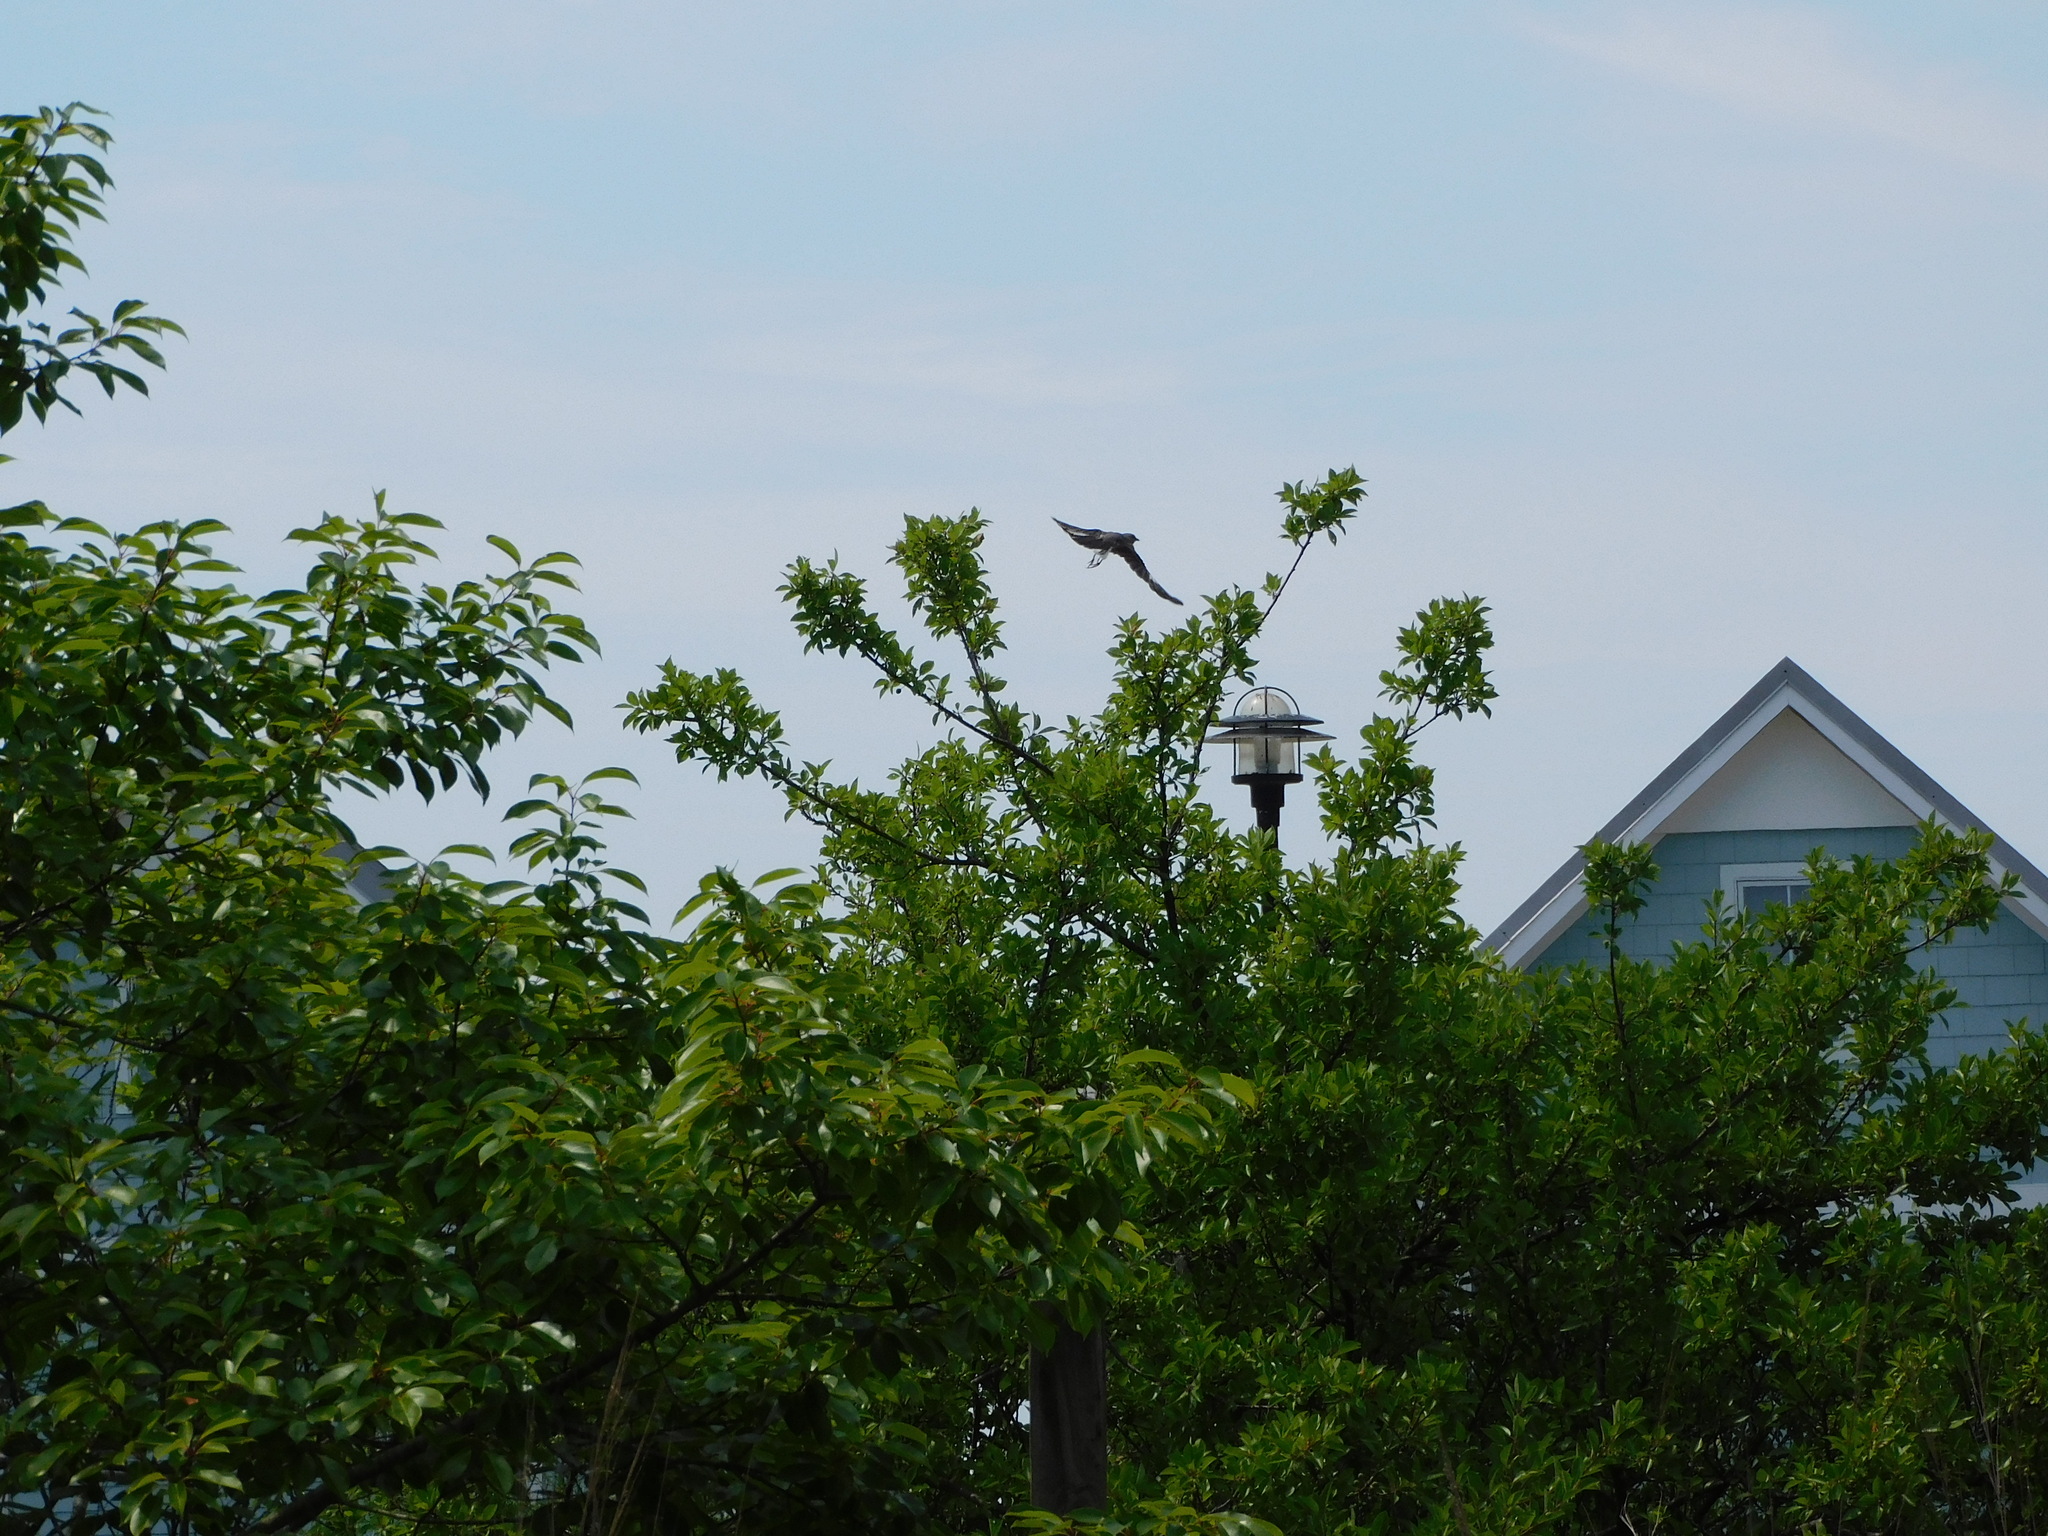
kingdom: Animalia
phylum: Chordata
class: Aves
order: Passeriformes
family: Mimidae
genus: Mimus
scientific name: Mimus polyglottos
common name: Northern mockingbird
